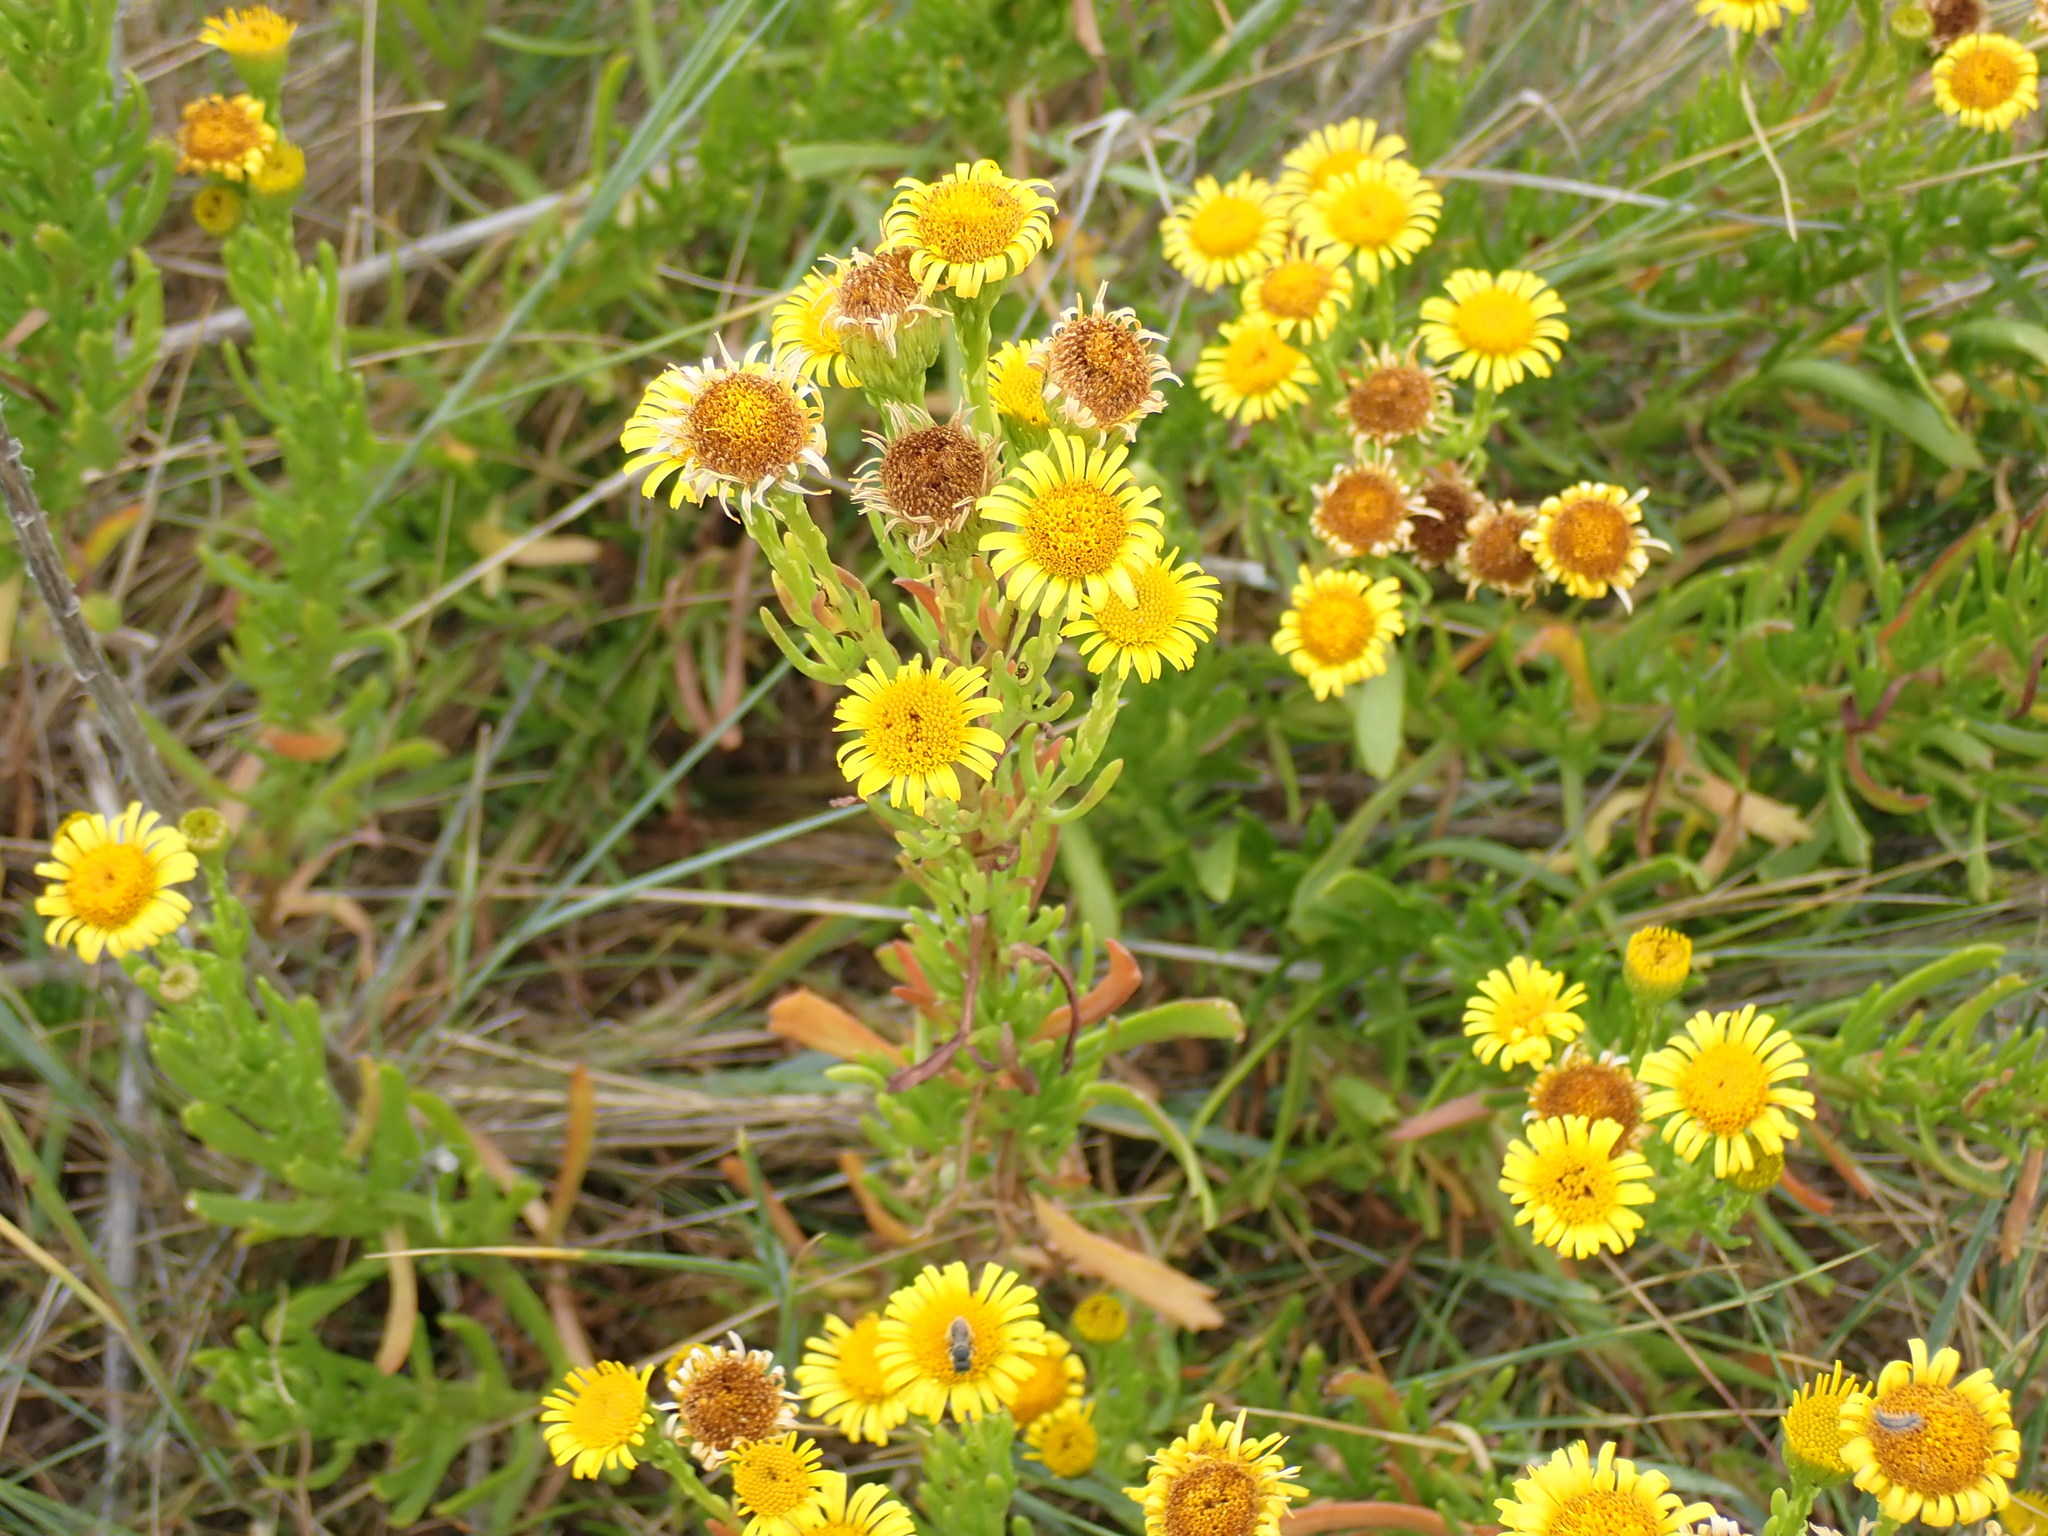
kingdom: Plantae
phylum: Tracheophyta
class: Magnoliopsida
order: Asterales
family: Asteraceae
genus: Limbarda
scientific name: Limbarda crithmoides
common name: Golden samphire
